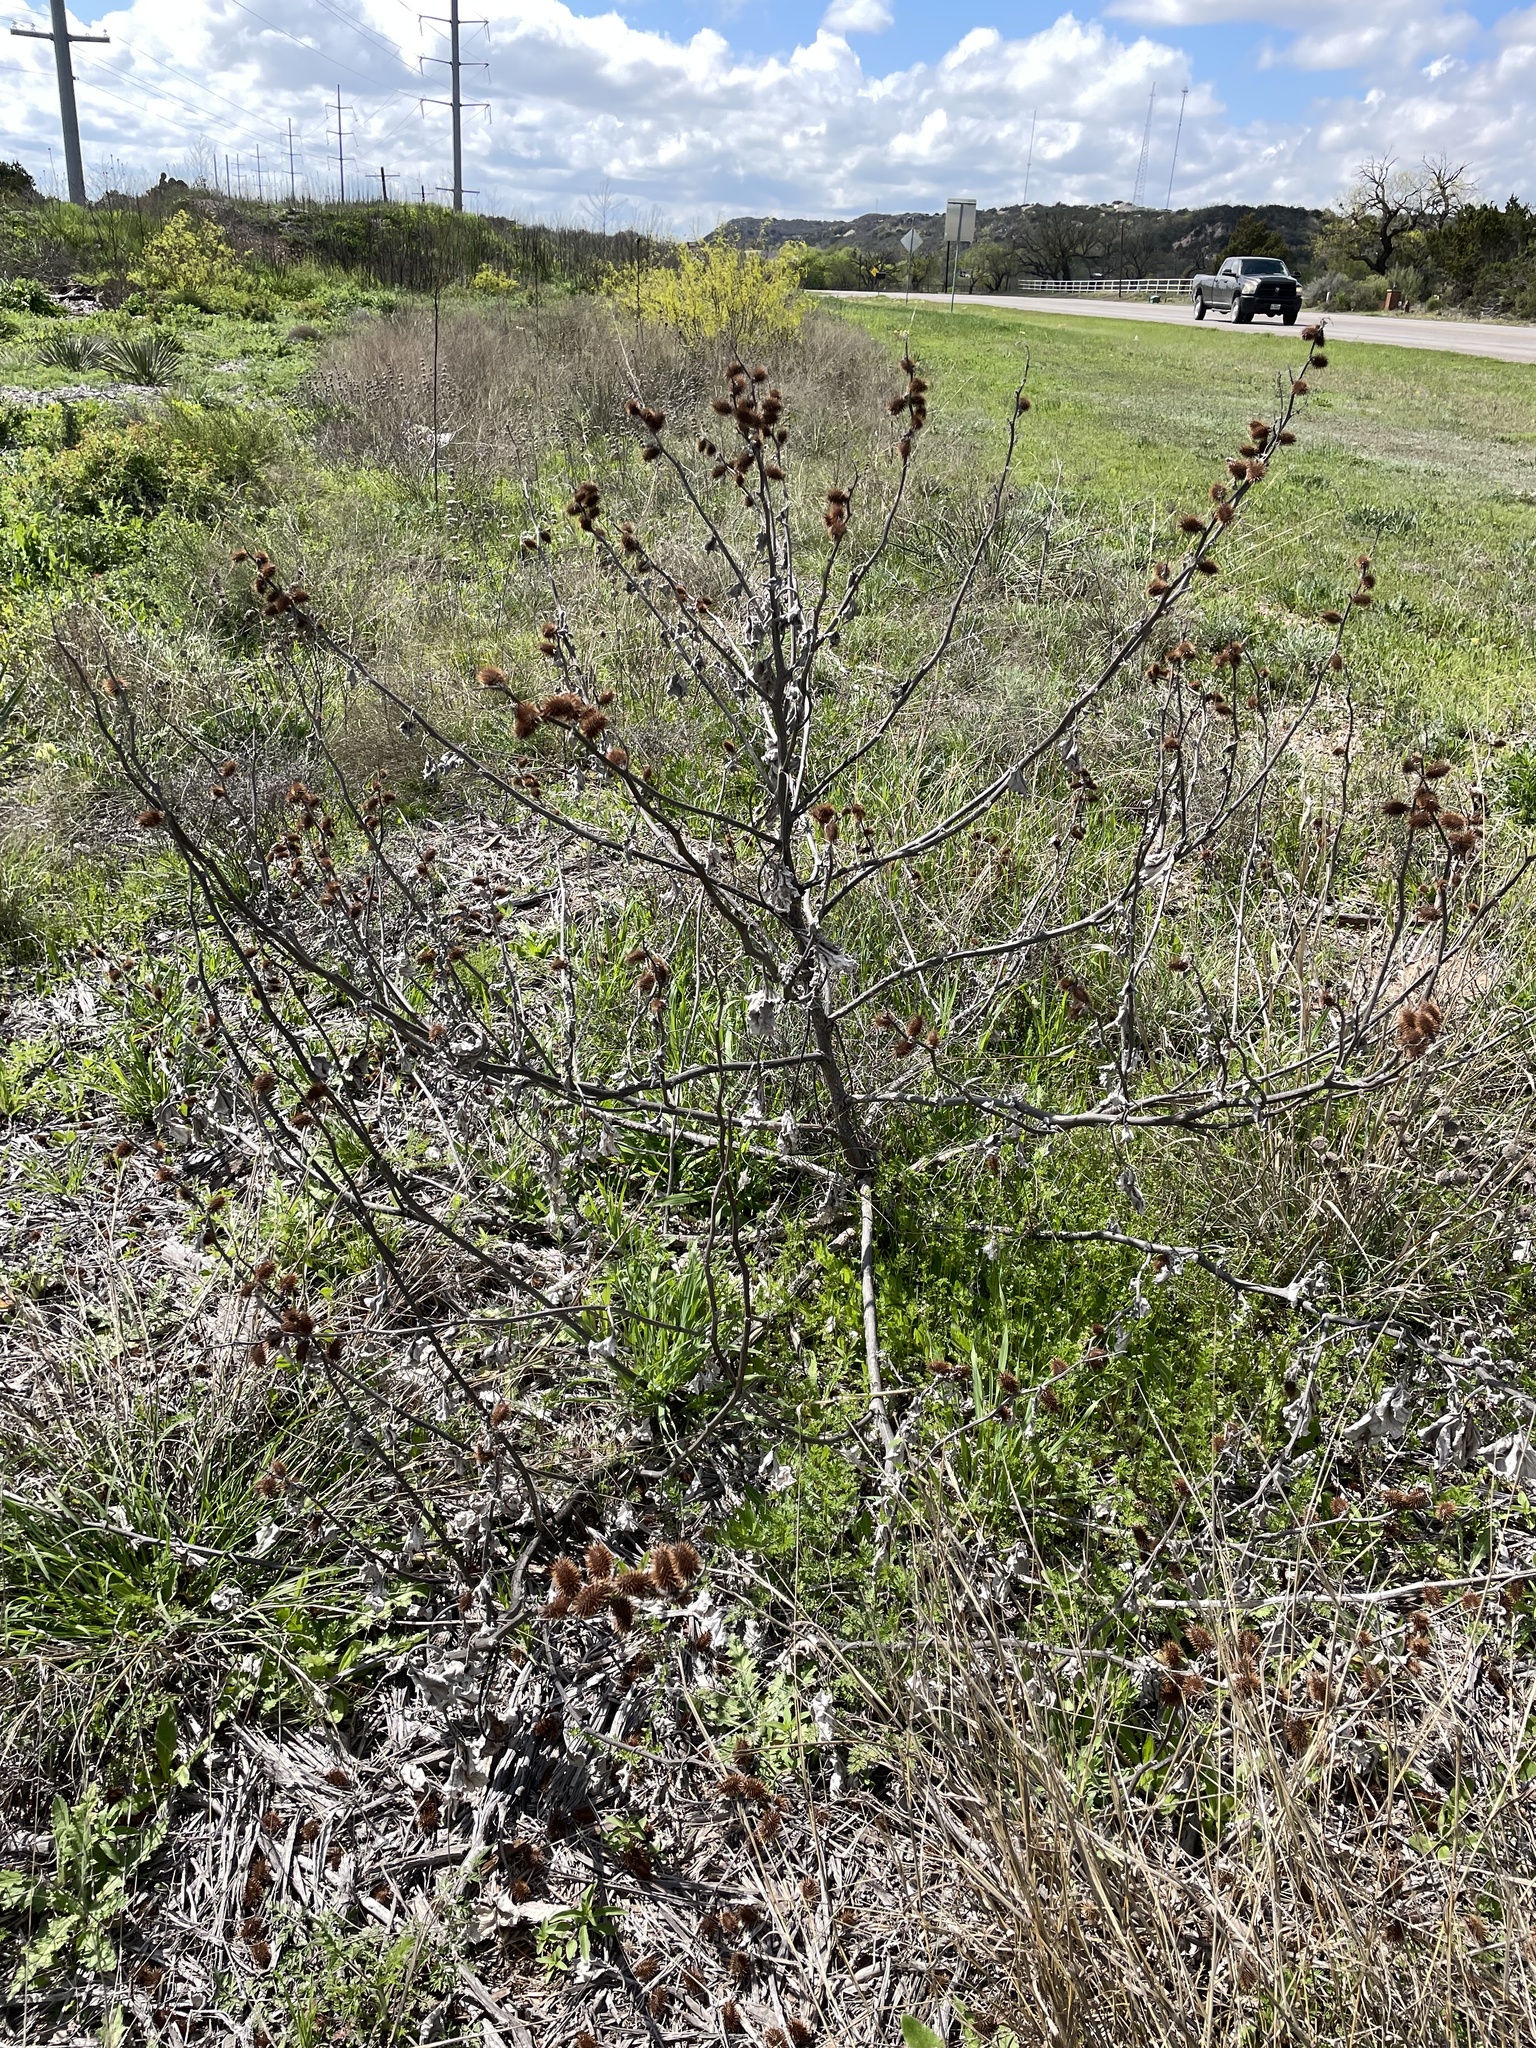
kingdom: Plantae
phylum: Tracheophyta
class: Magnoliopsida
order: Asterales
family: Asteraceae
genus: Xanthium
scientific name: Xanthium strumarium
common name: Rough cocklebur
